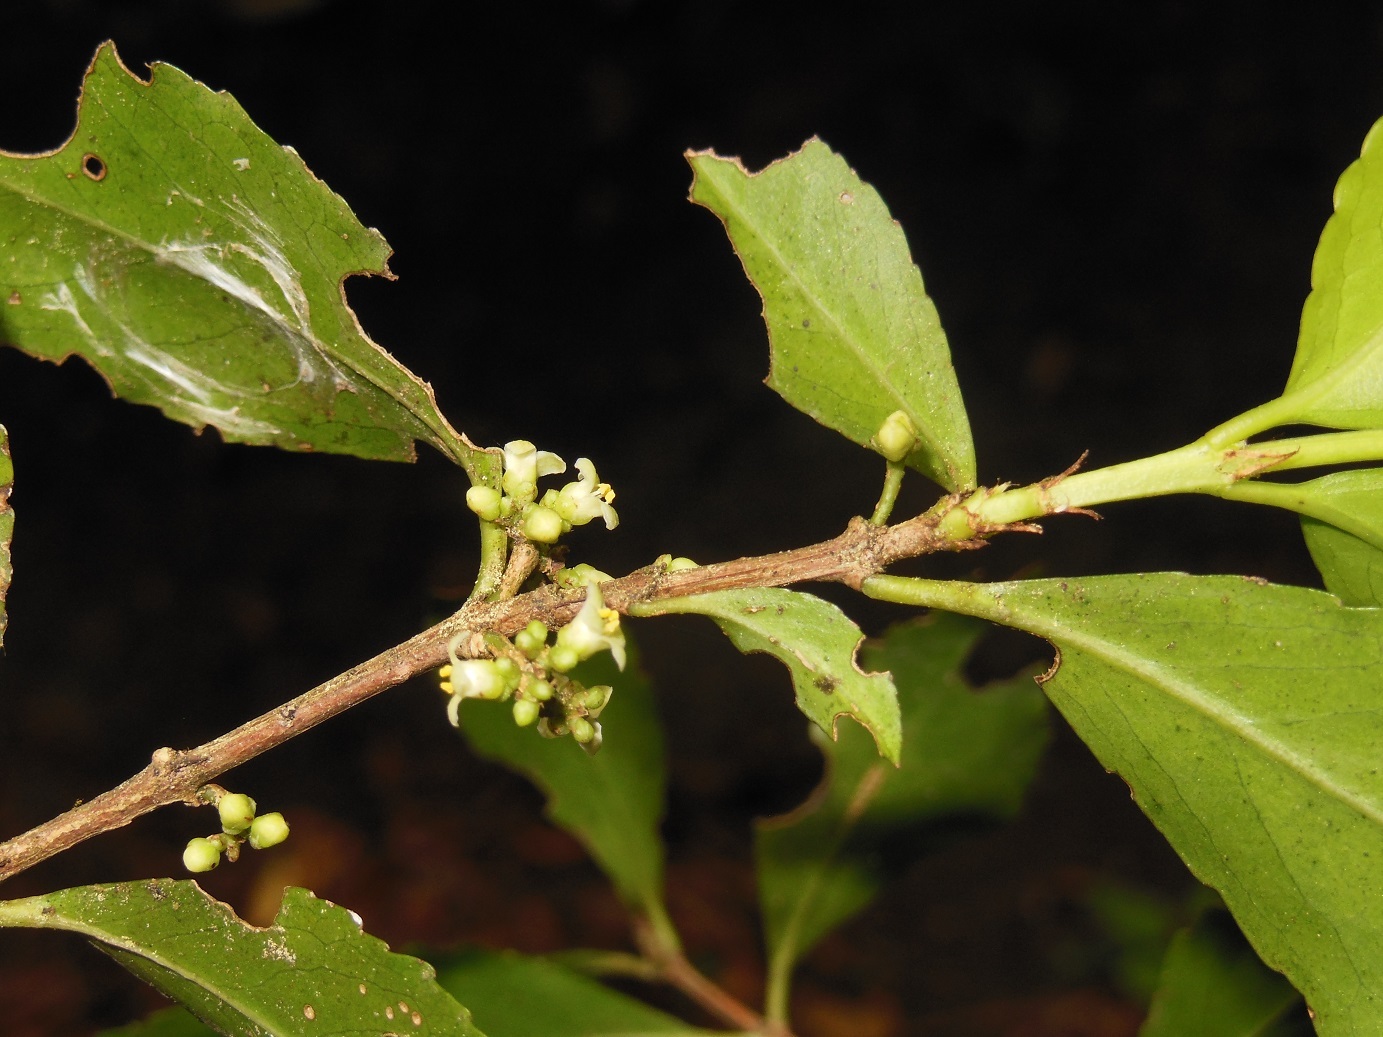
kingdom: Plantae
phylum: Tracheophyta
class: Magnoliopsida
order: Celastrales
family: Celastraceae
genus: Gyminda
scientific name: Gyminda tonduzii
